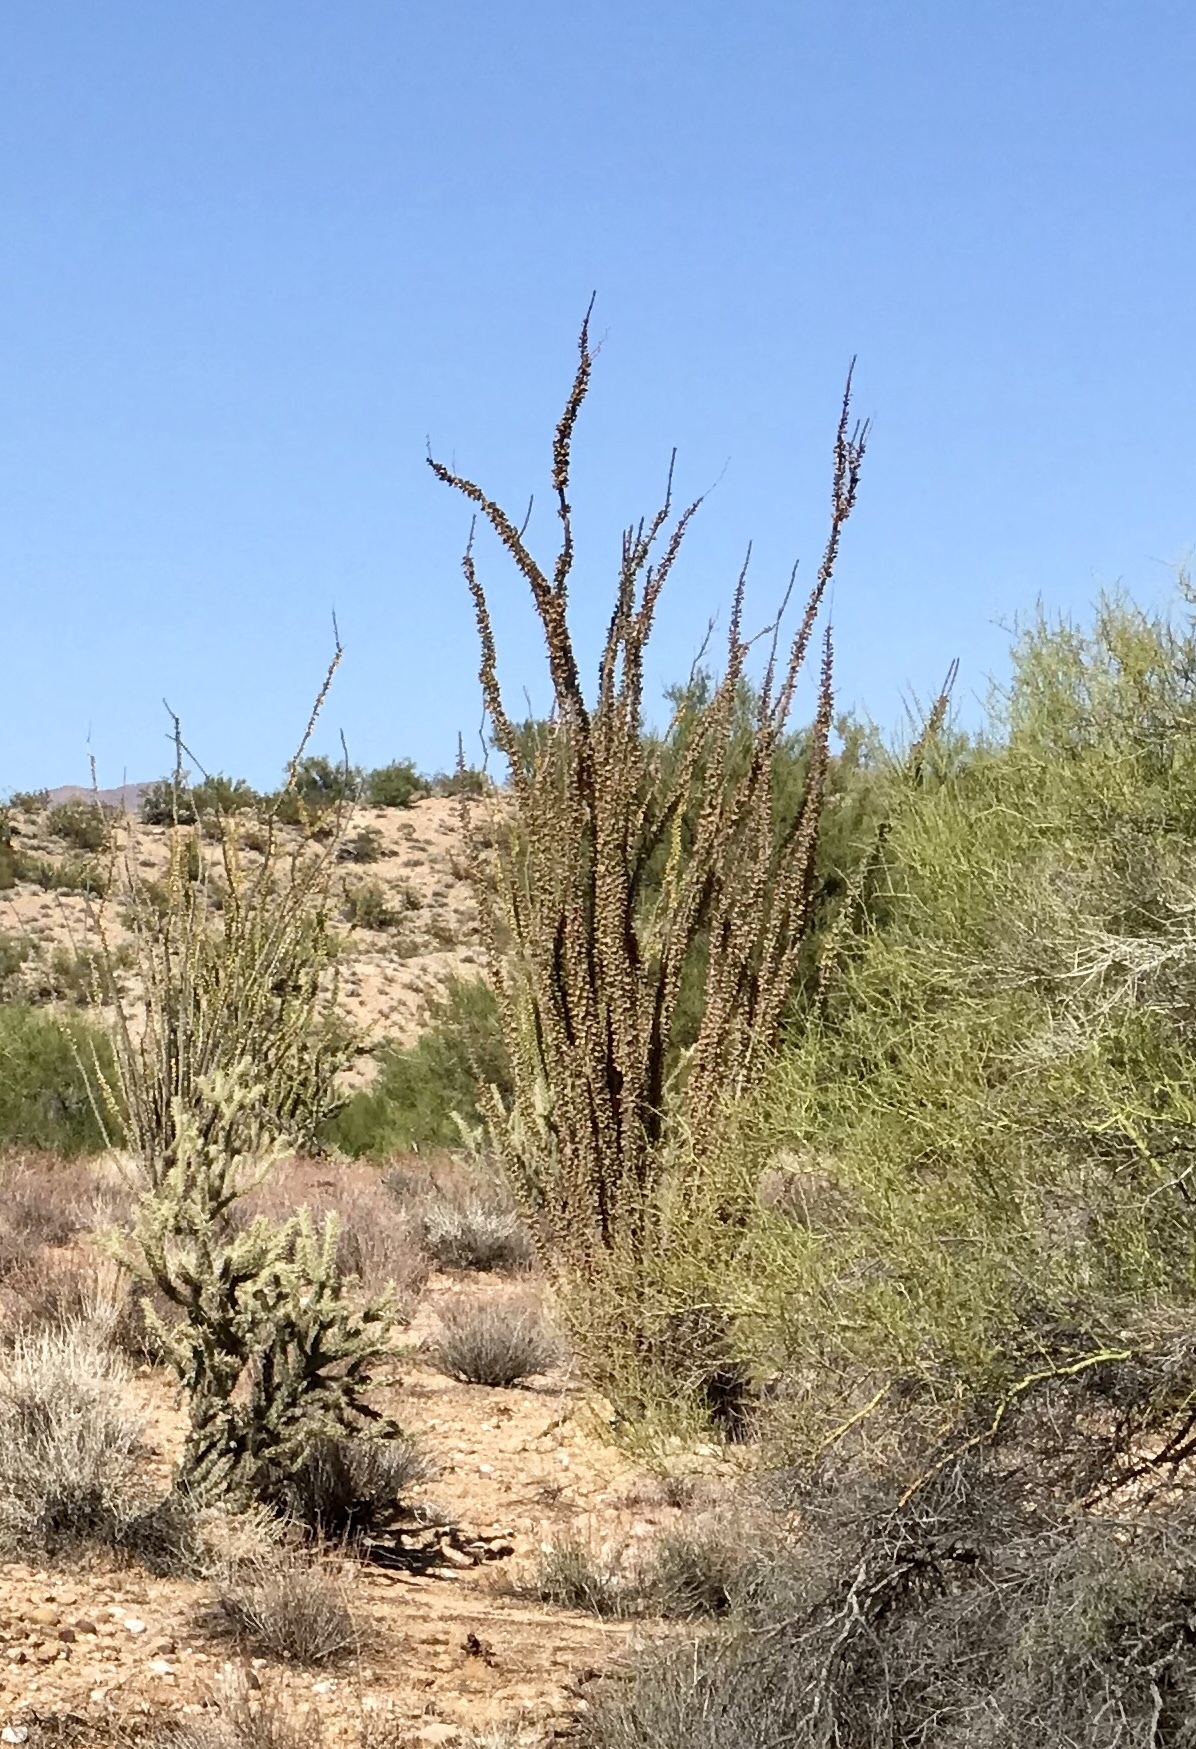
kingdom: Plantae
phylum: Tracheophyta
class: Magnoliopsida
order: Ericales
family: Fouquieriaceae
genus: Fouquieria
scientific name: Fouquieria splendens
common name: Vine-cactus
